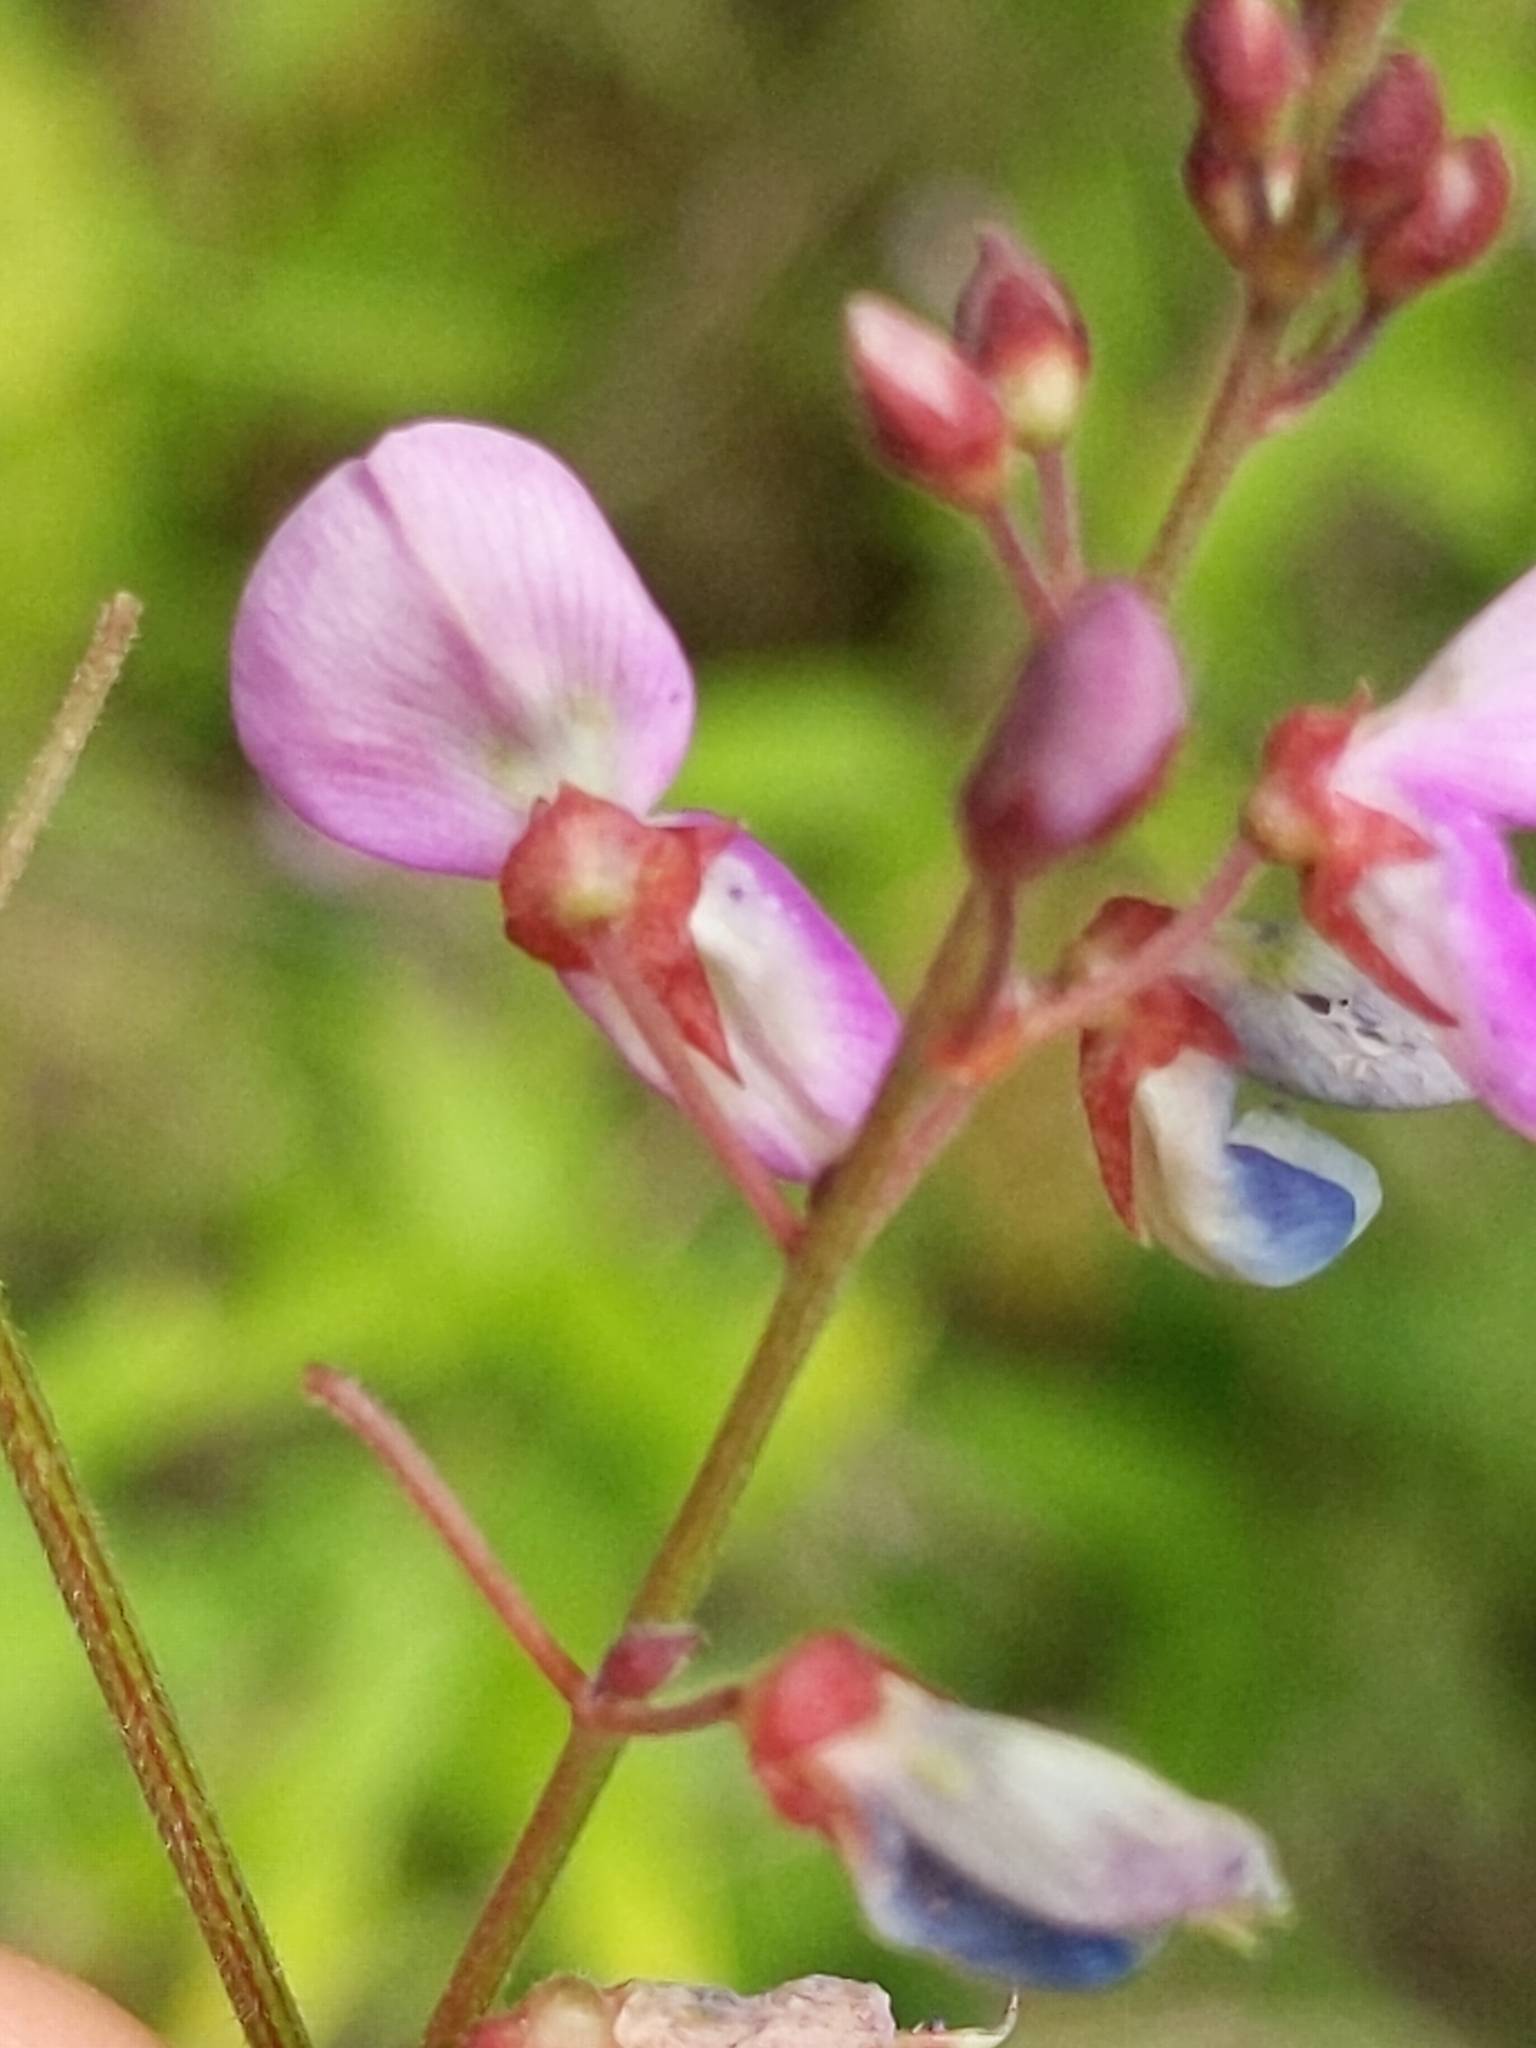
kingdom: Plantae
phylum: Tracheophyta
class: Magnoliopsida
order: Fabales
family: Fabaceae
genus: Desmodium
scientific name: Desmodium paniculatum
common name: Panicled tick-clover
